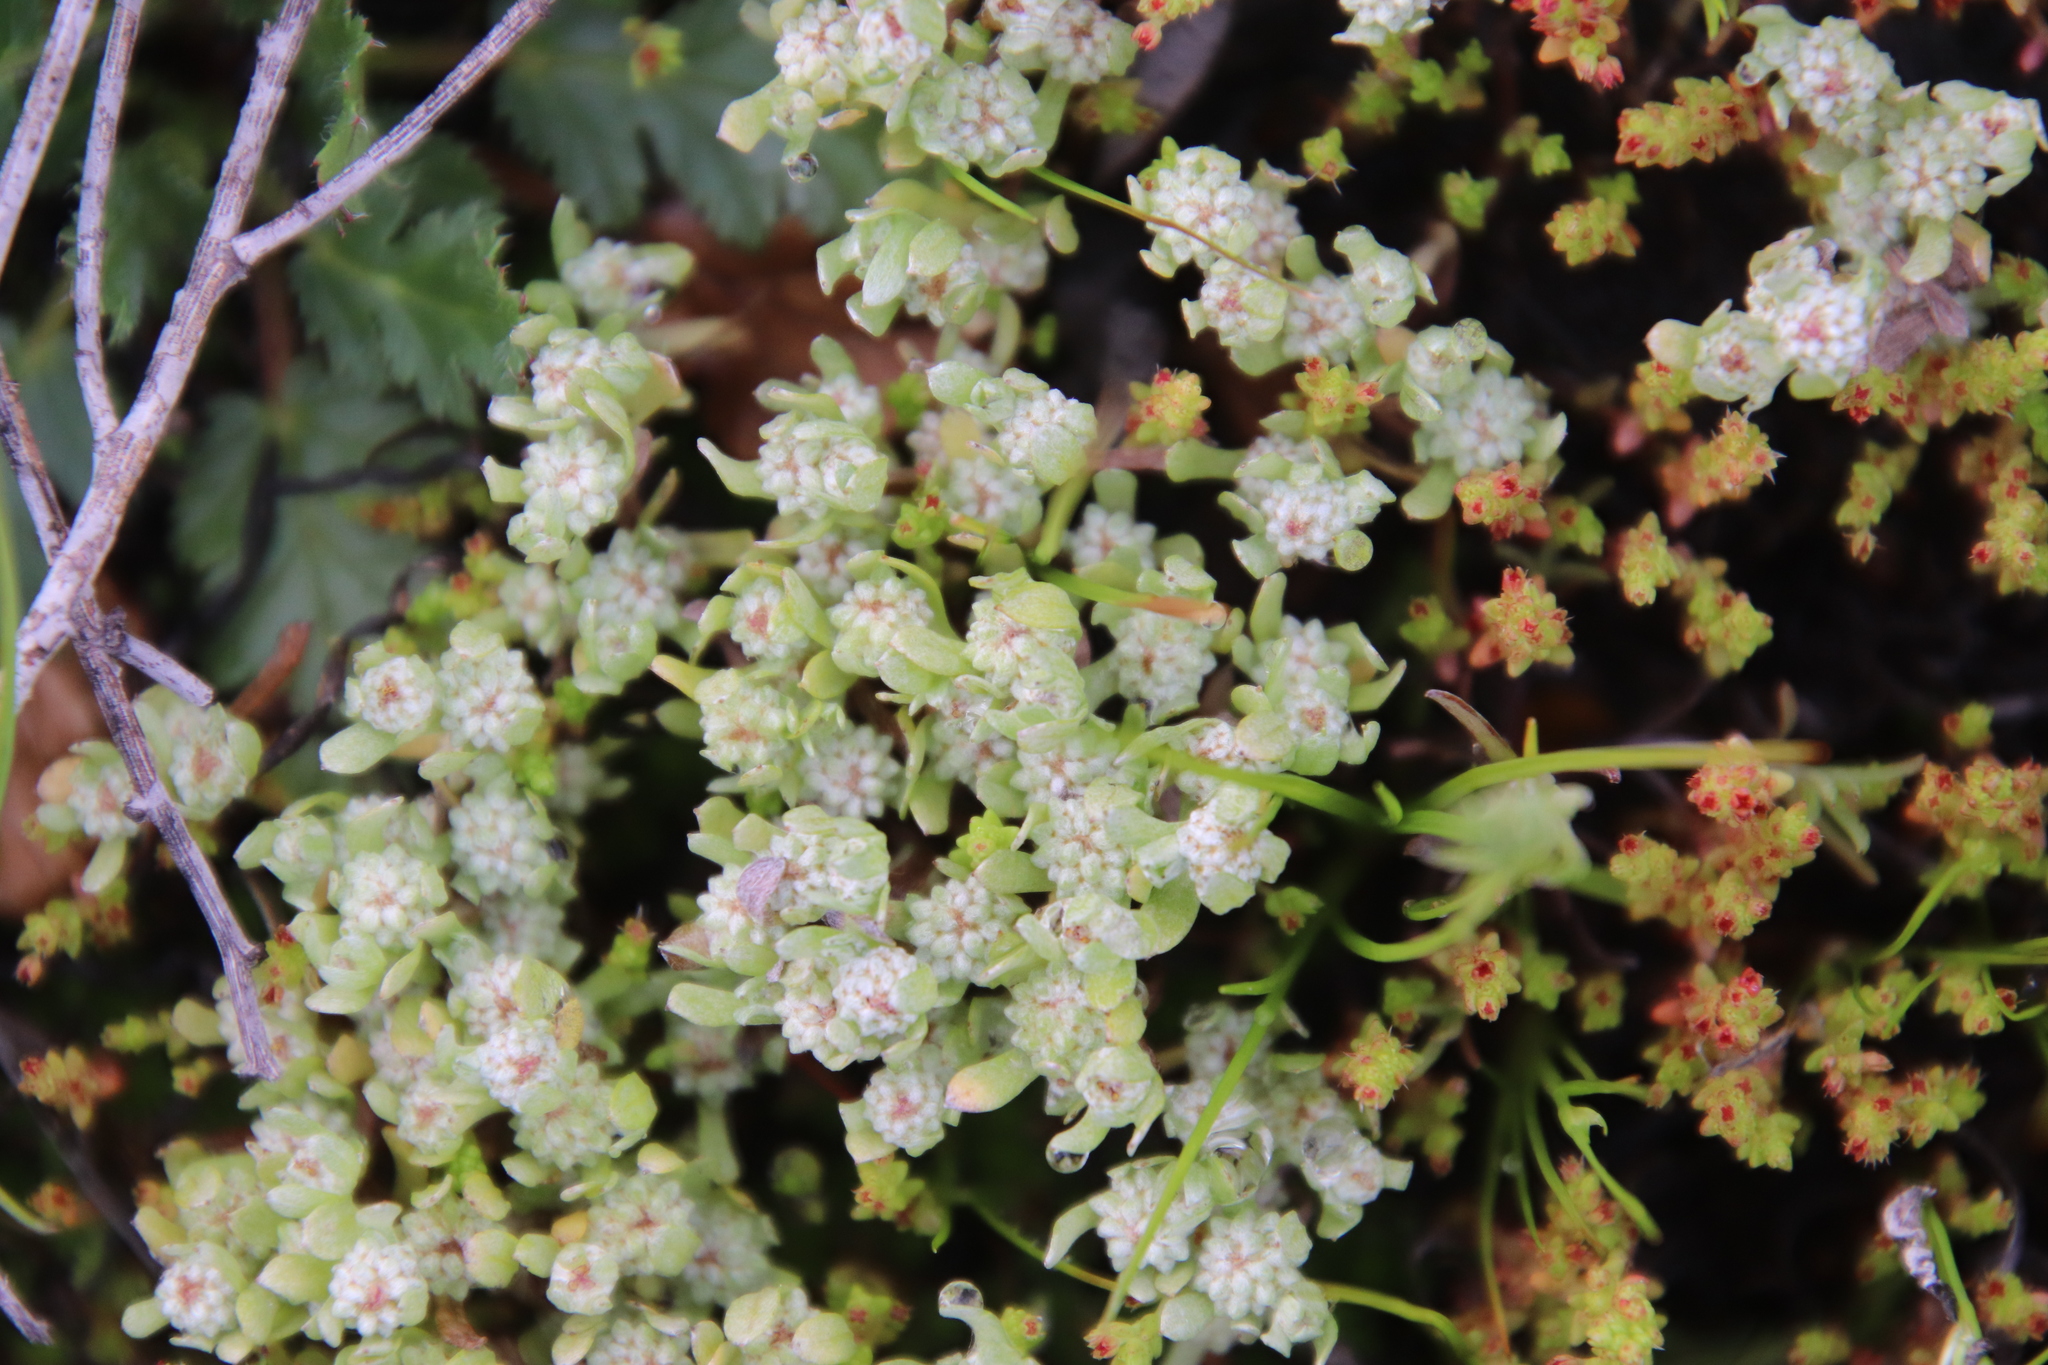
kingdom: Plantae
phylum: Tracheophyta
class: Magnoliopsida
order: Asterales
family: Asteraceae
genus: Psilocarphus
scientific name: Psilocarphus tenellus
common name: Slender woolly-marbles
